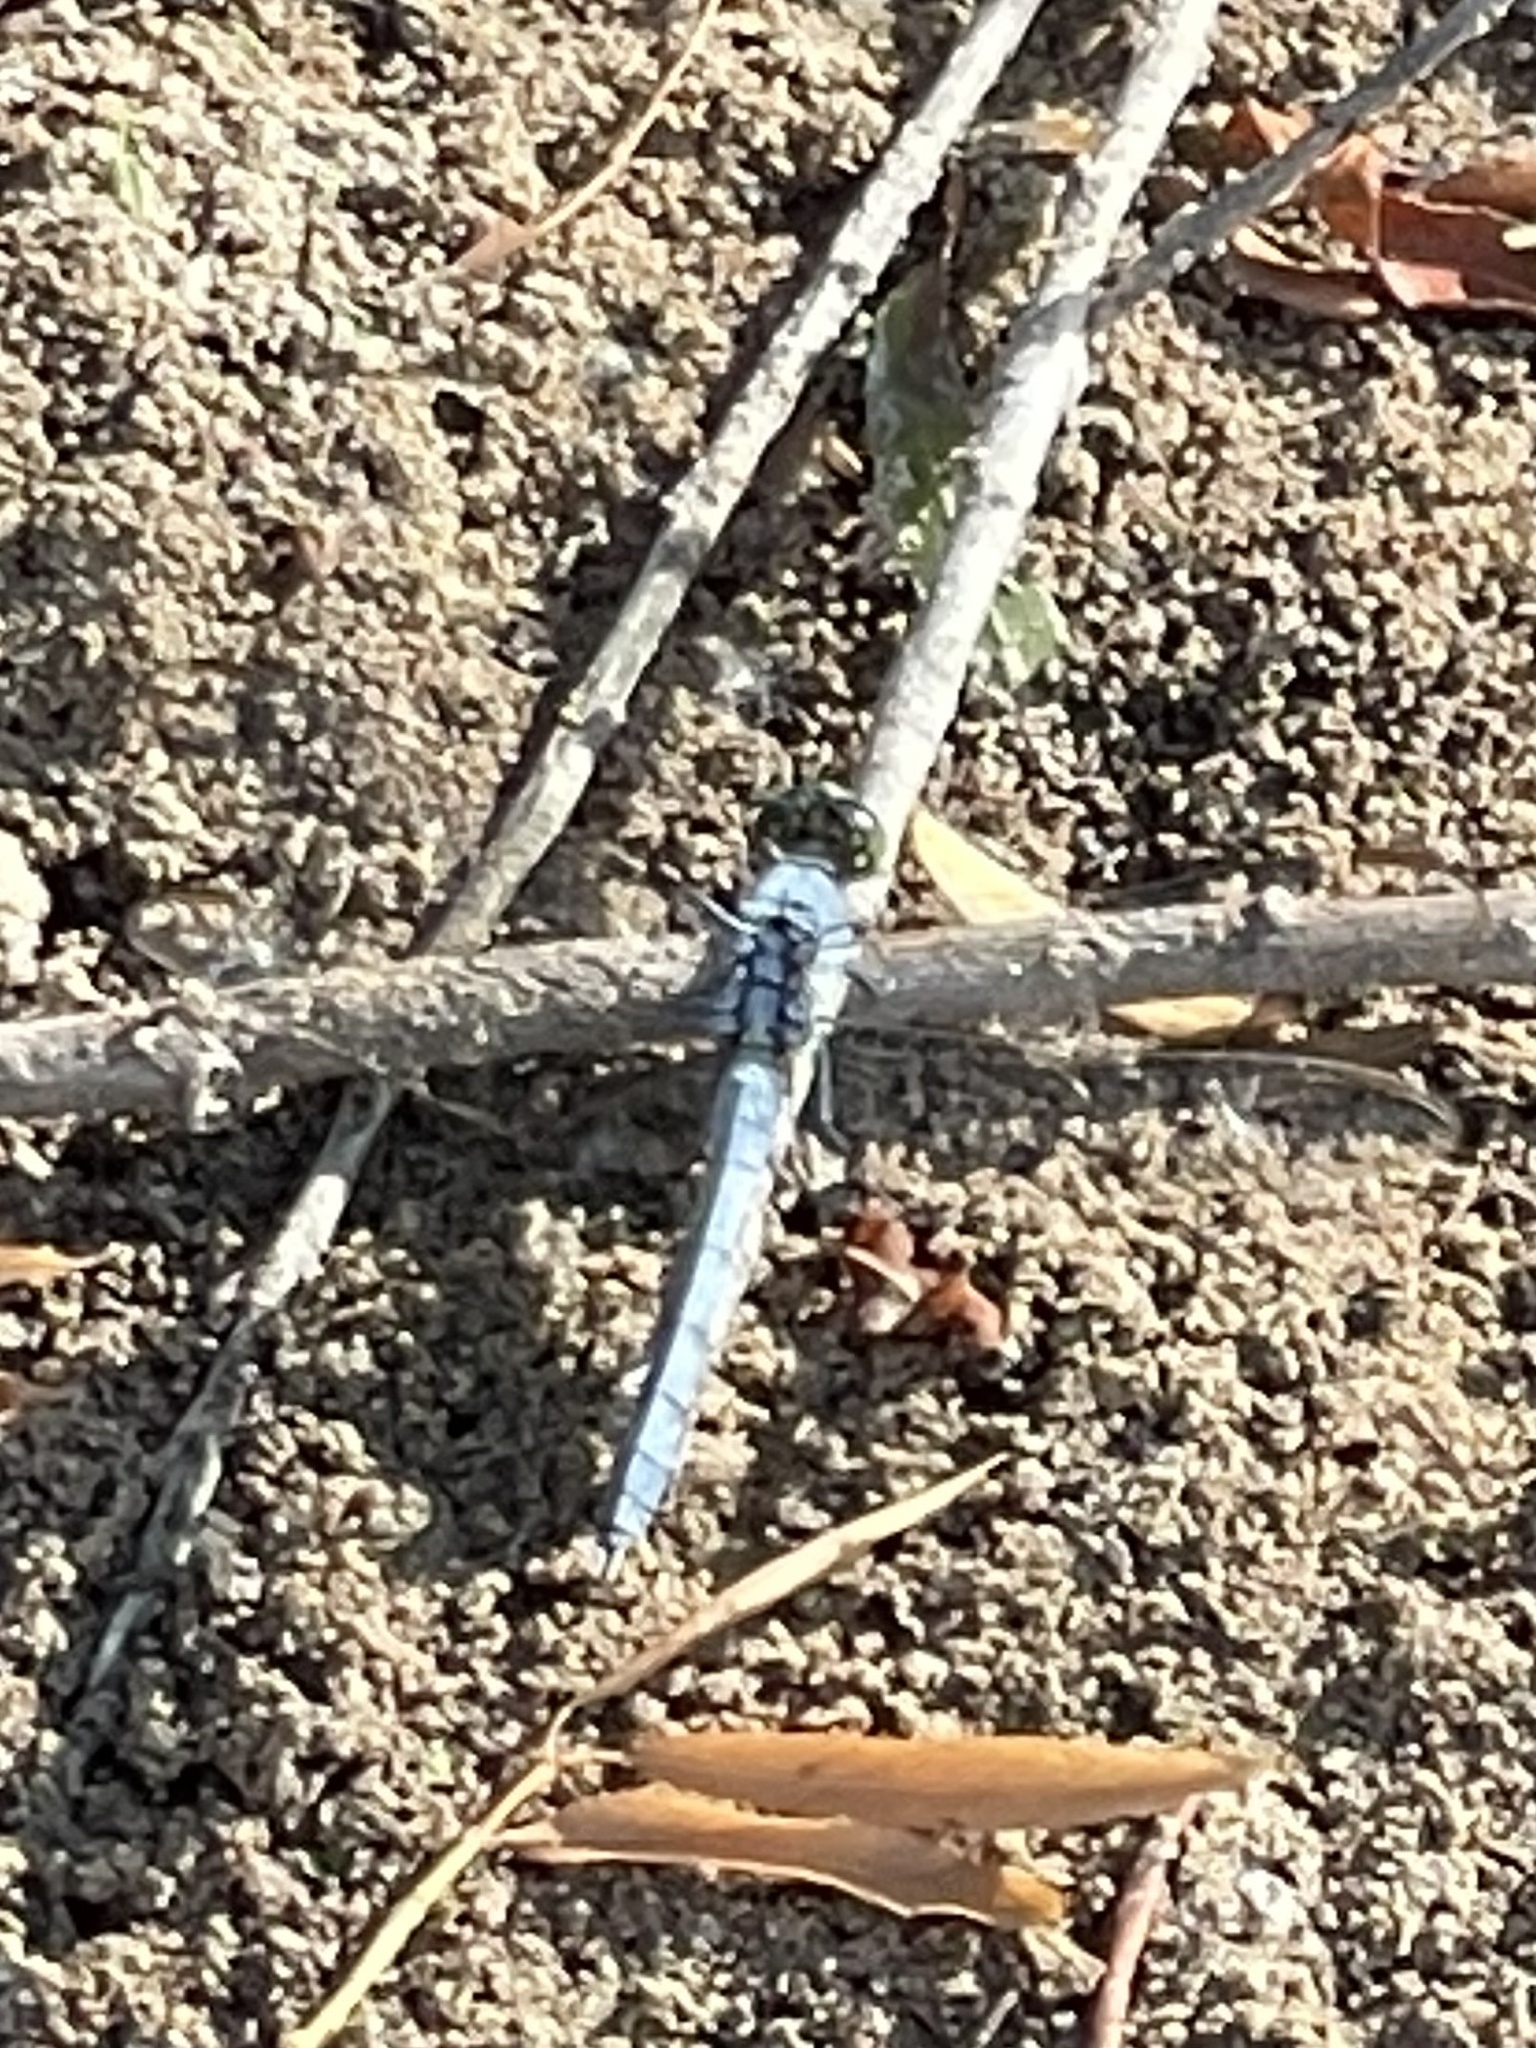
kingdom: Animalia
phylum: Arthropoda
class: Insecta
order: Odonata
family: Libellulidae
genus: Erythemis
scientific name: Erythemis simplicicollis
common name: Eastern pondhawk
